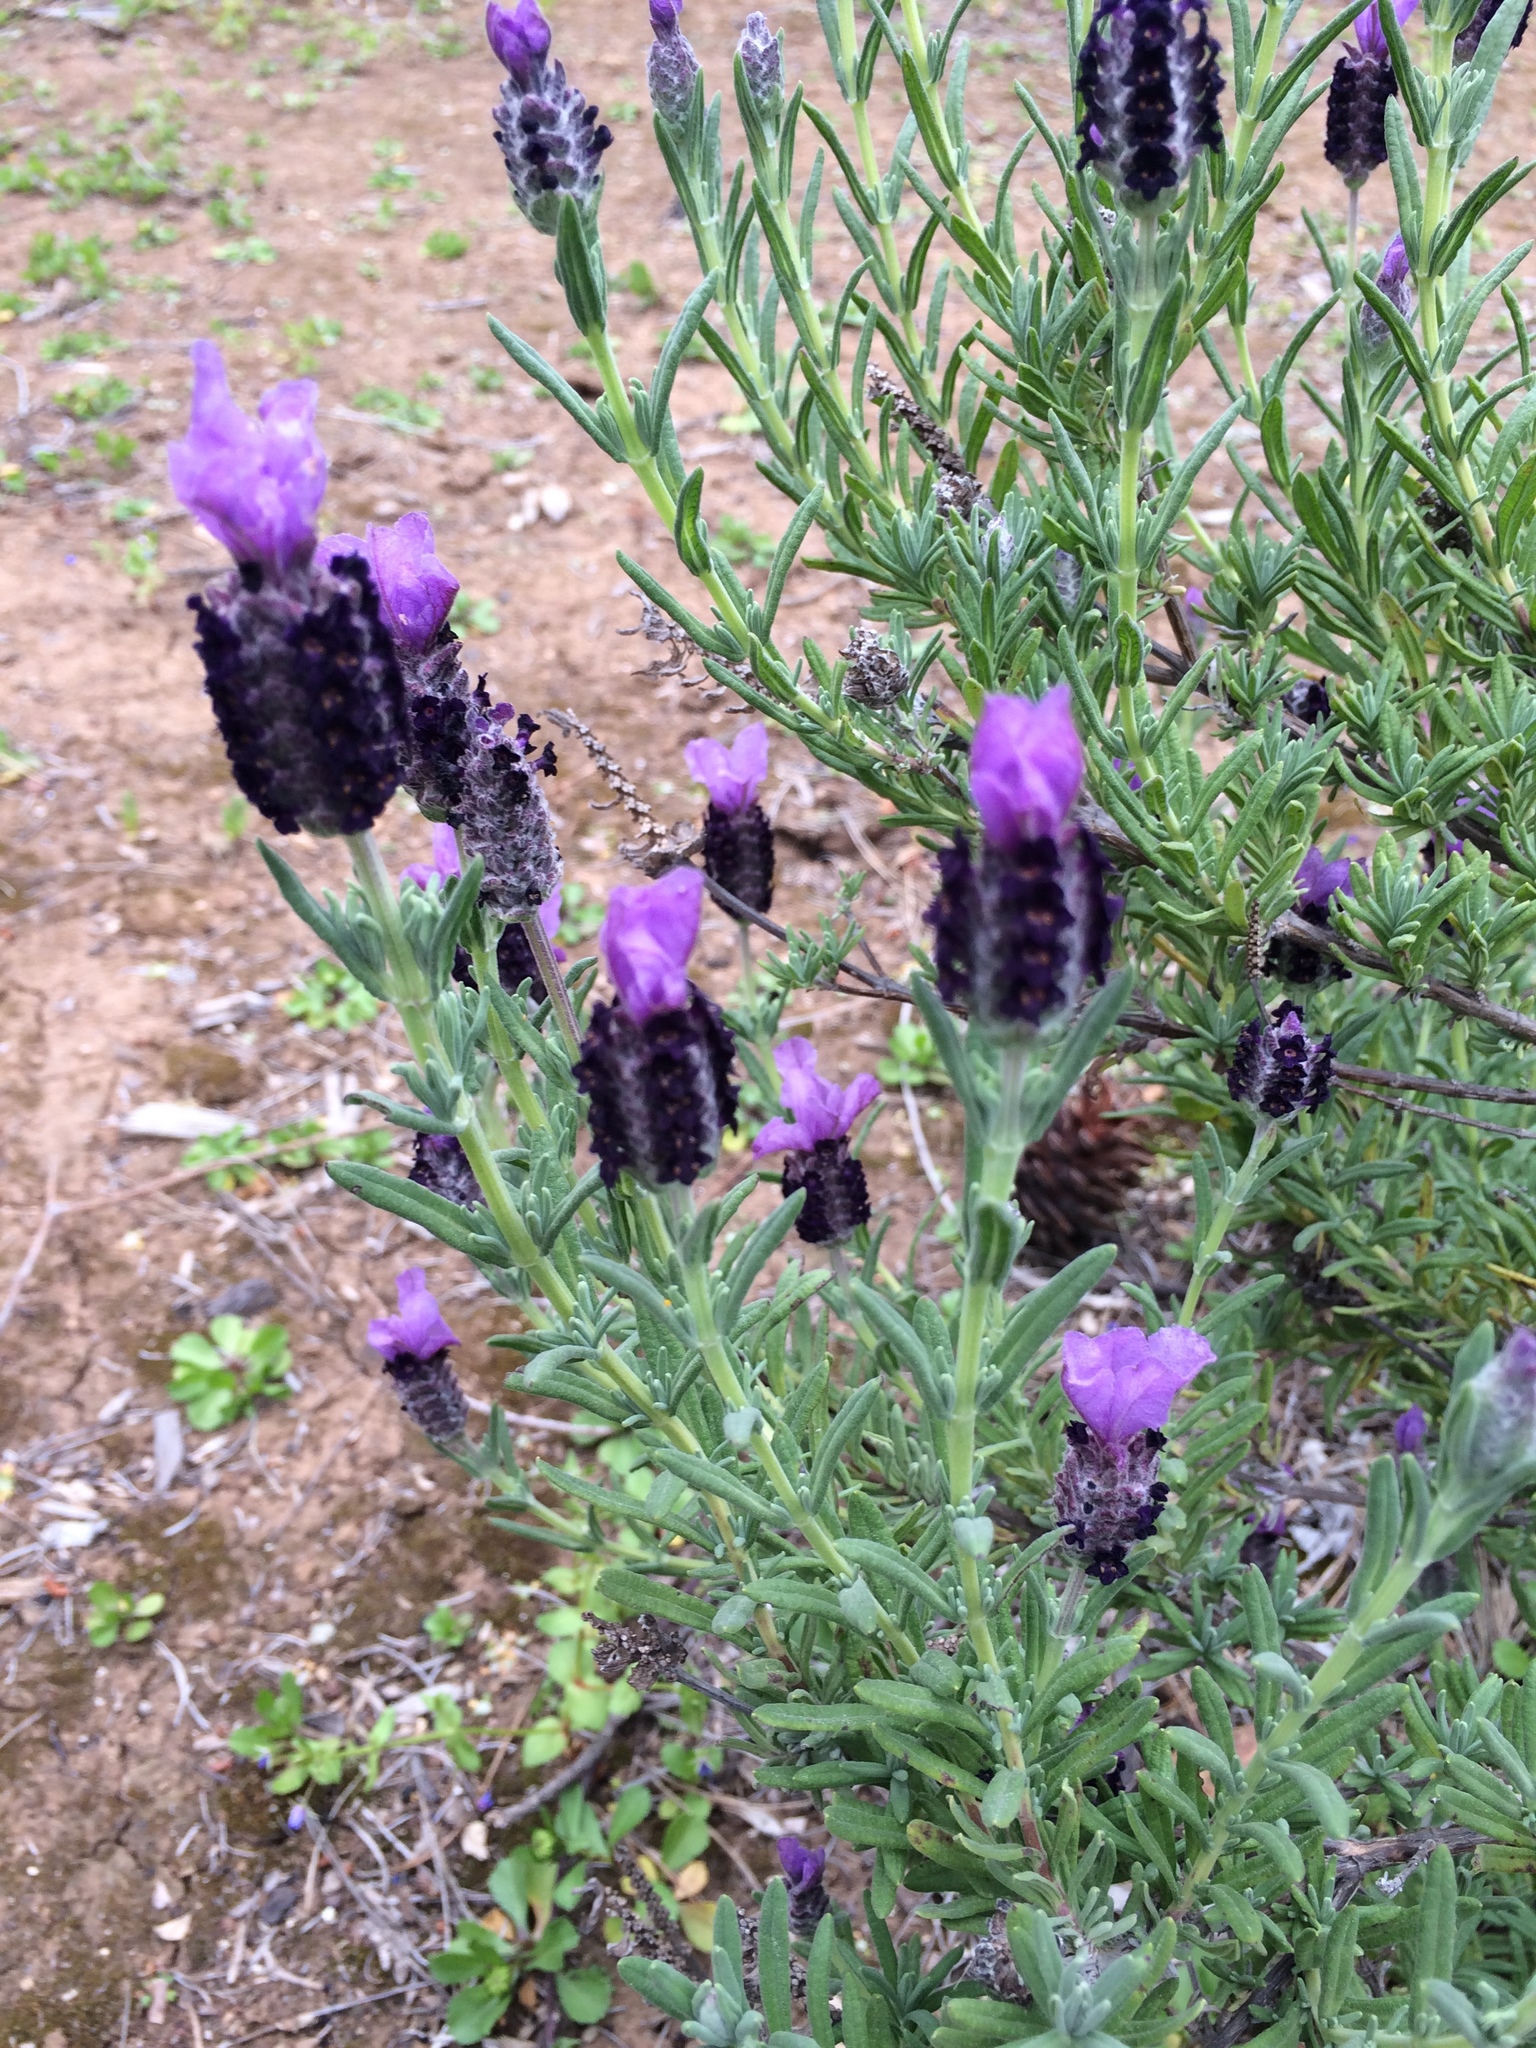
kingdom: Plantae
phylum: Tracheophyta
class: Magnoliopsida
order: Lamiales
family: Lamiaceae
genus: Lavandula
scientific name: Lavandula stoechas
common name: French lavender
